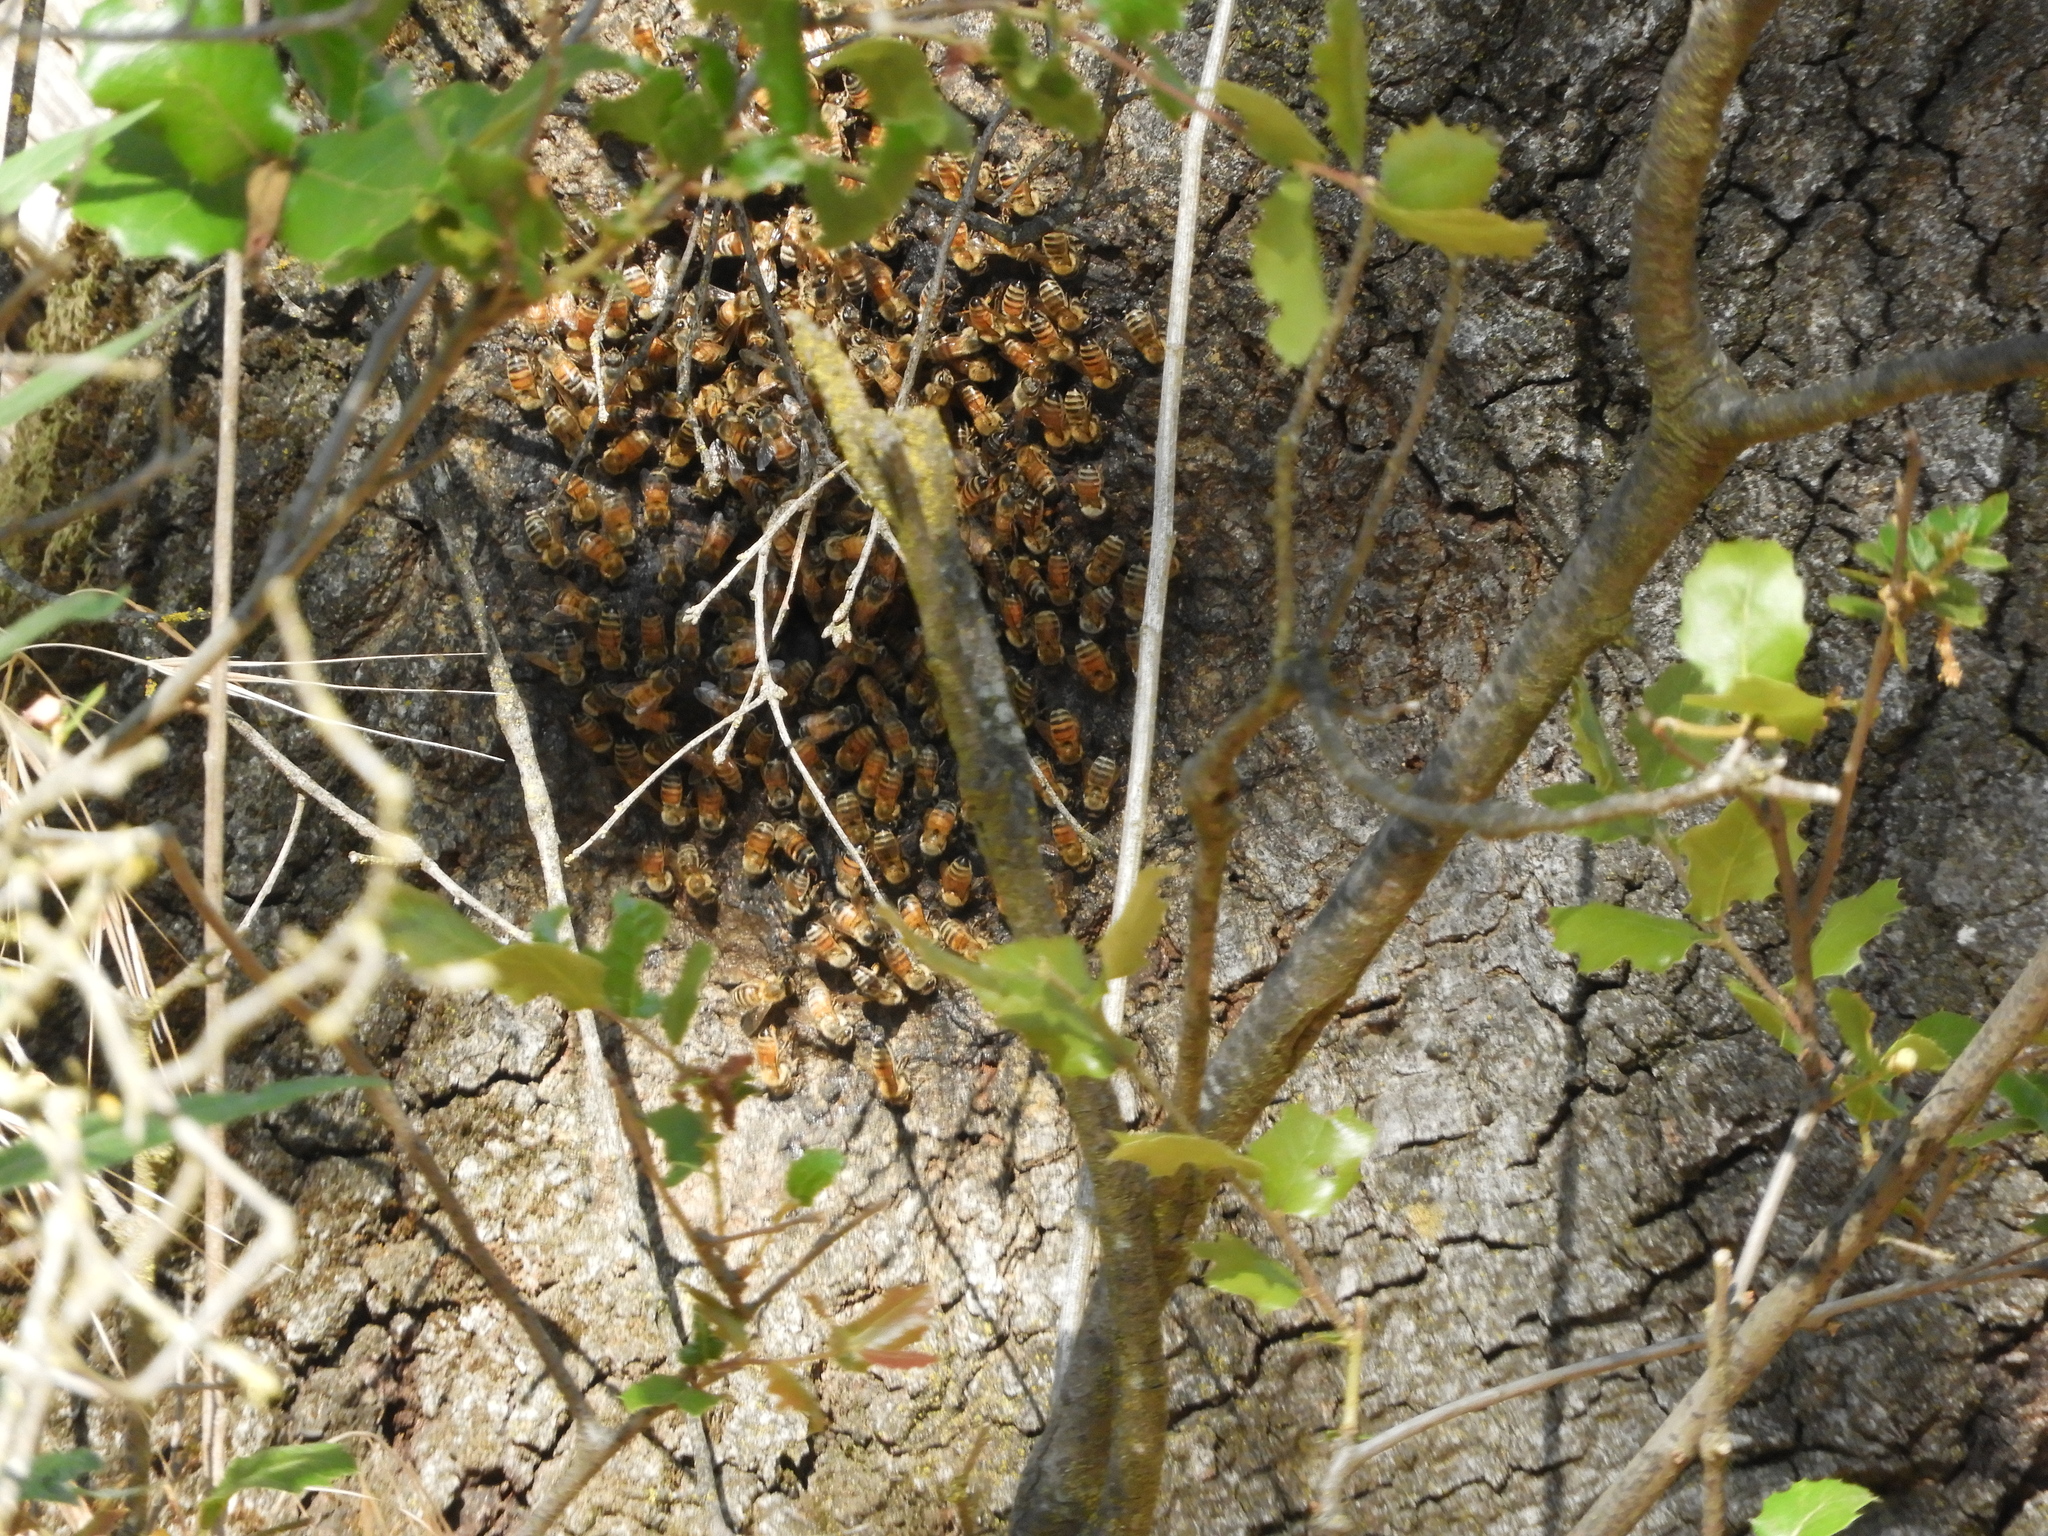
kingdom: Animalia
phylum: Arthropoda
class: Insecta
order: Hymenoptera
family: Apidae
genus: Apis
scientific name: Apis mellifera
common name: Honey bee
